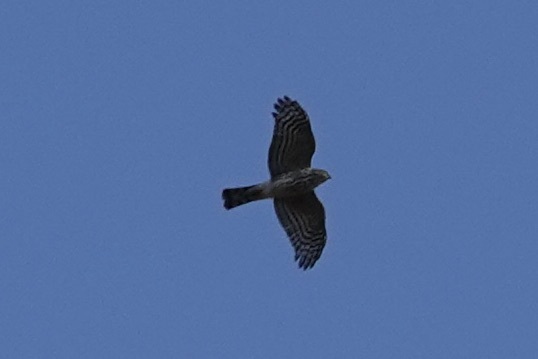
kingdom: Animalia
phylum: Chordata
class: Aves
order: Accipitriformes
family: Accipitridae
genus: Accipiter
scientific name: Accipiter striatus
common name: Sharp-shinned hawk
